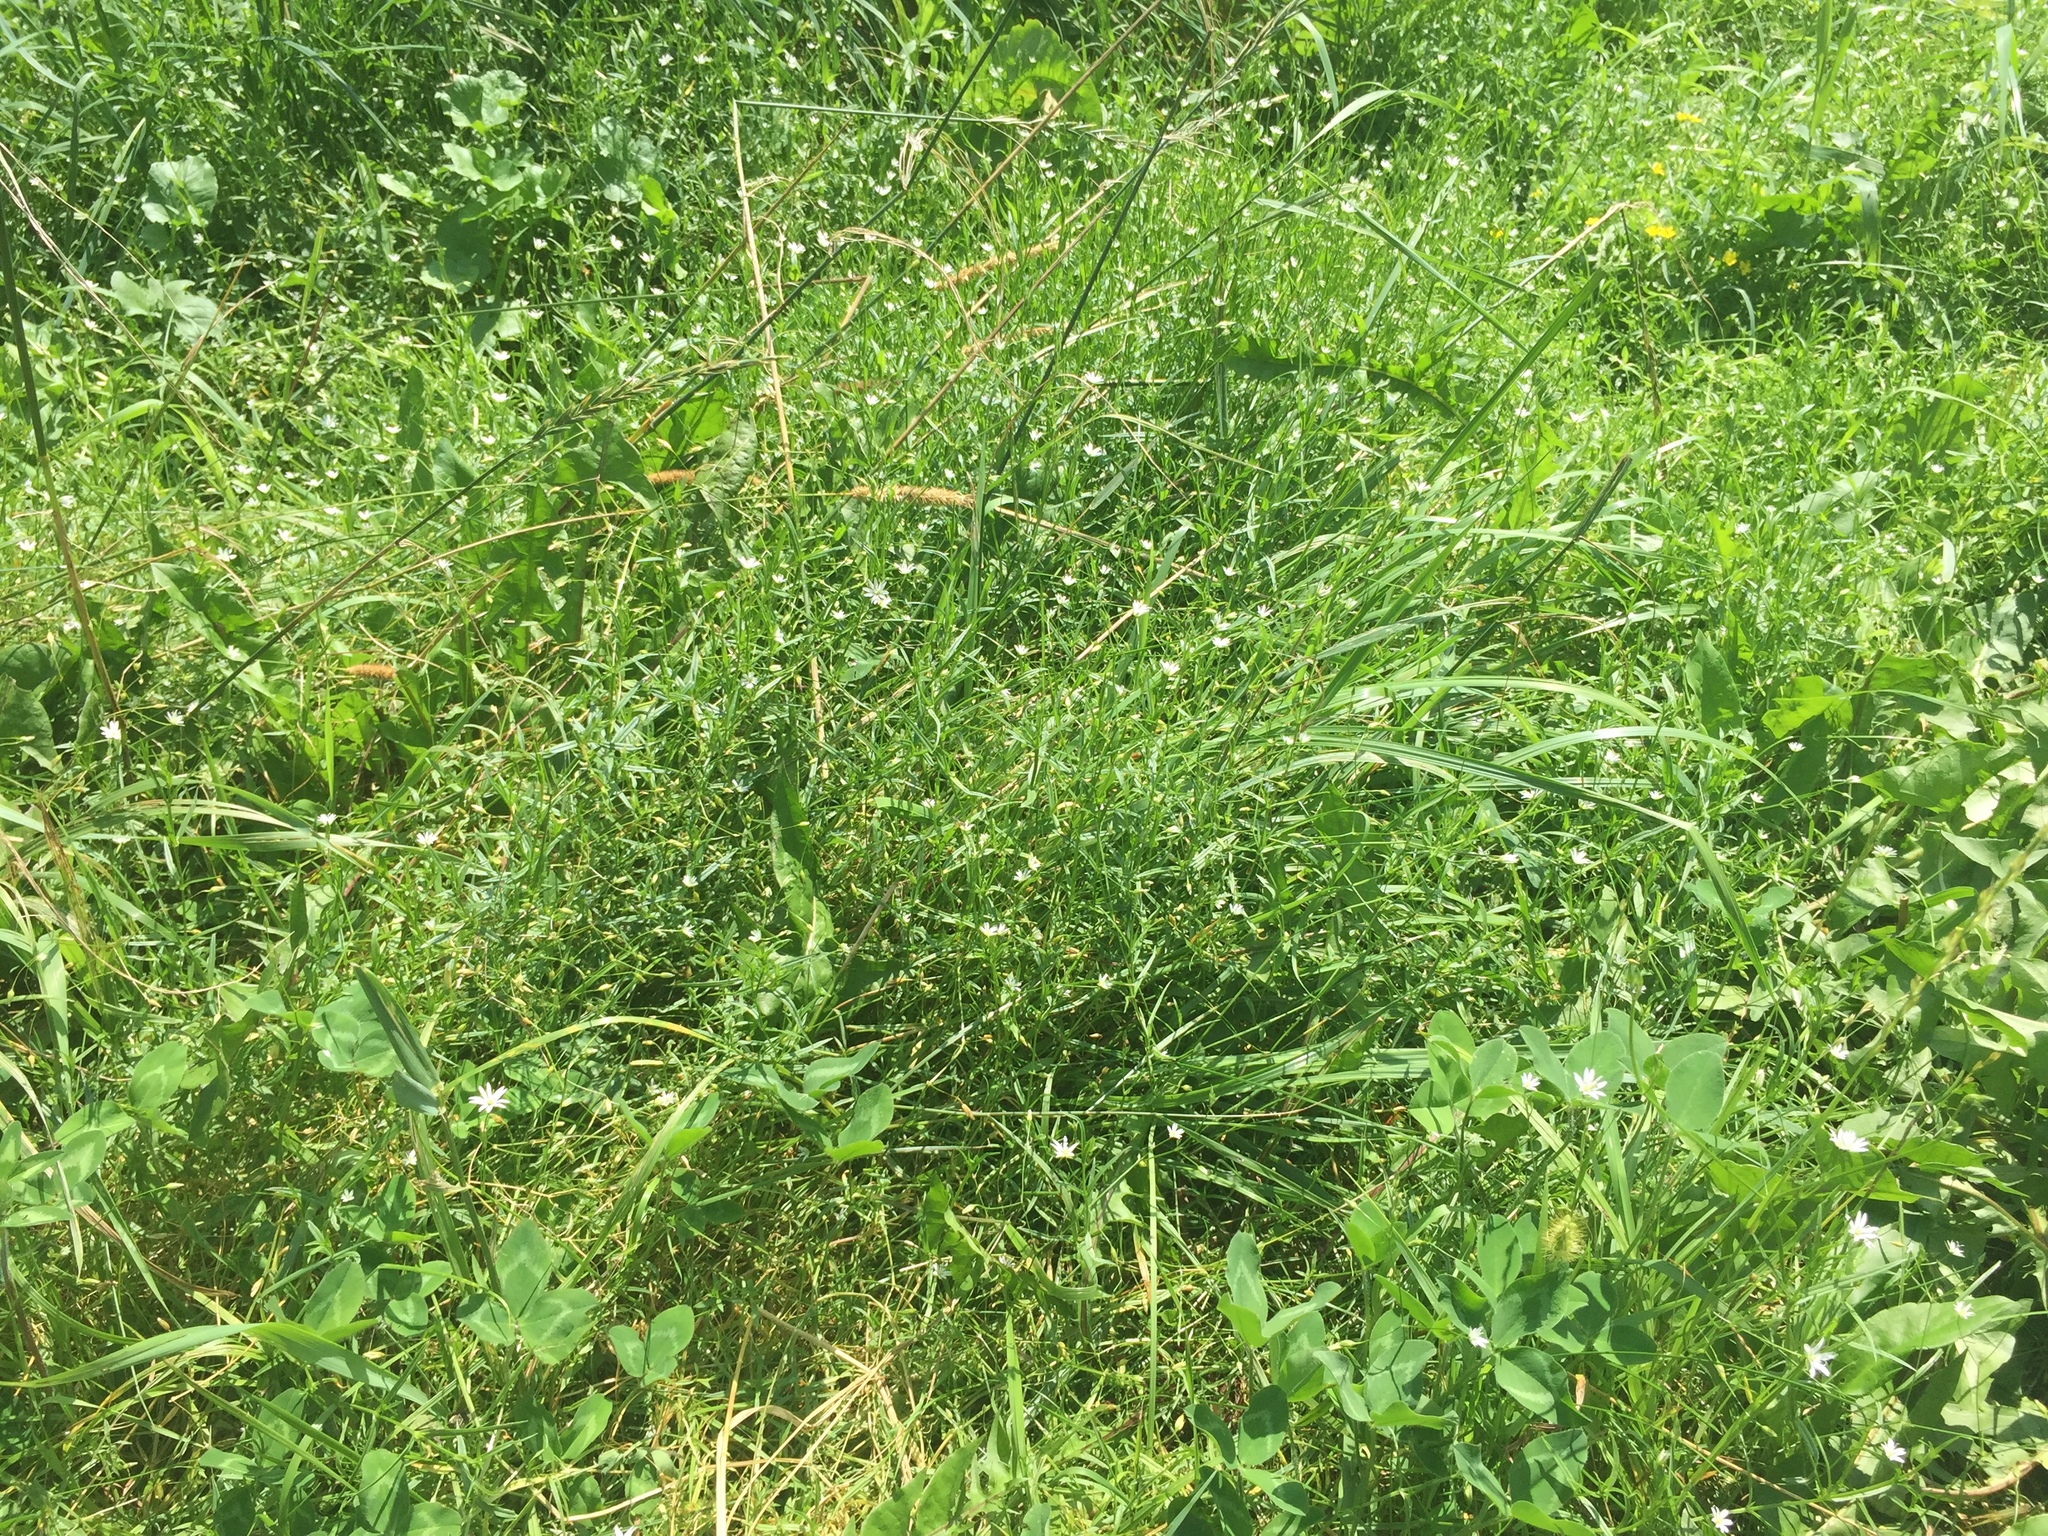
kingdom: Plantae
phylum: Tracheophyta
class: Magnoliopsida
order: Caryophyllales
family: Caryophyllaceae
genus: Stellaria
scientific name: Stellaria graminea
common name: Grass-like starwort
